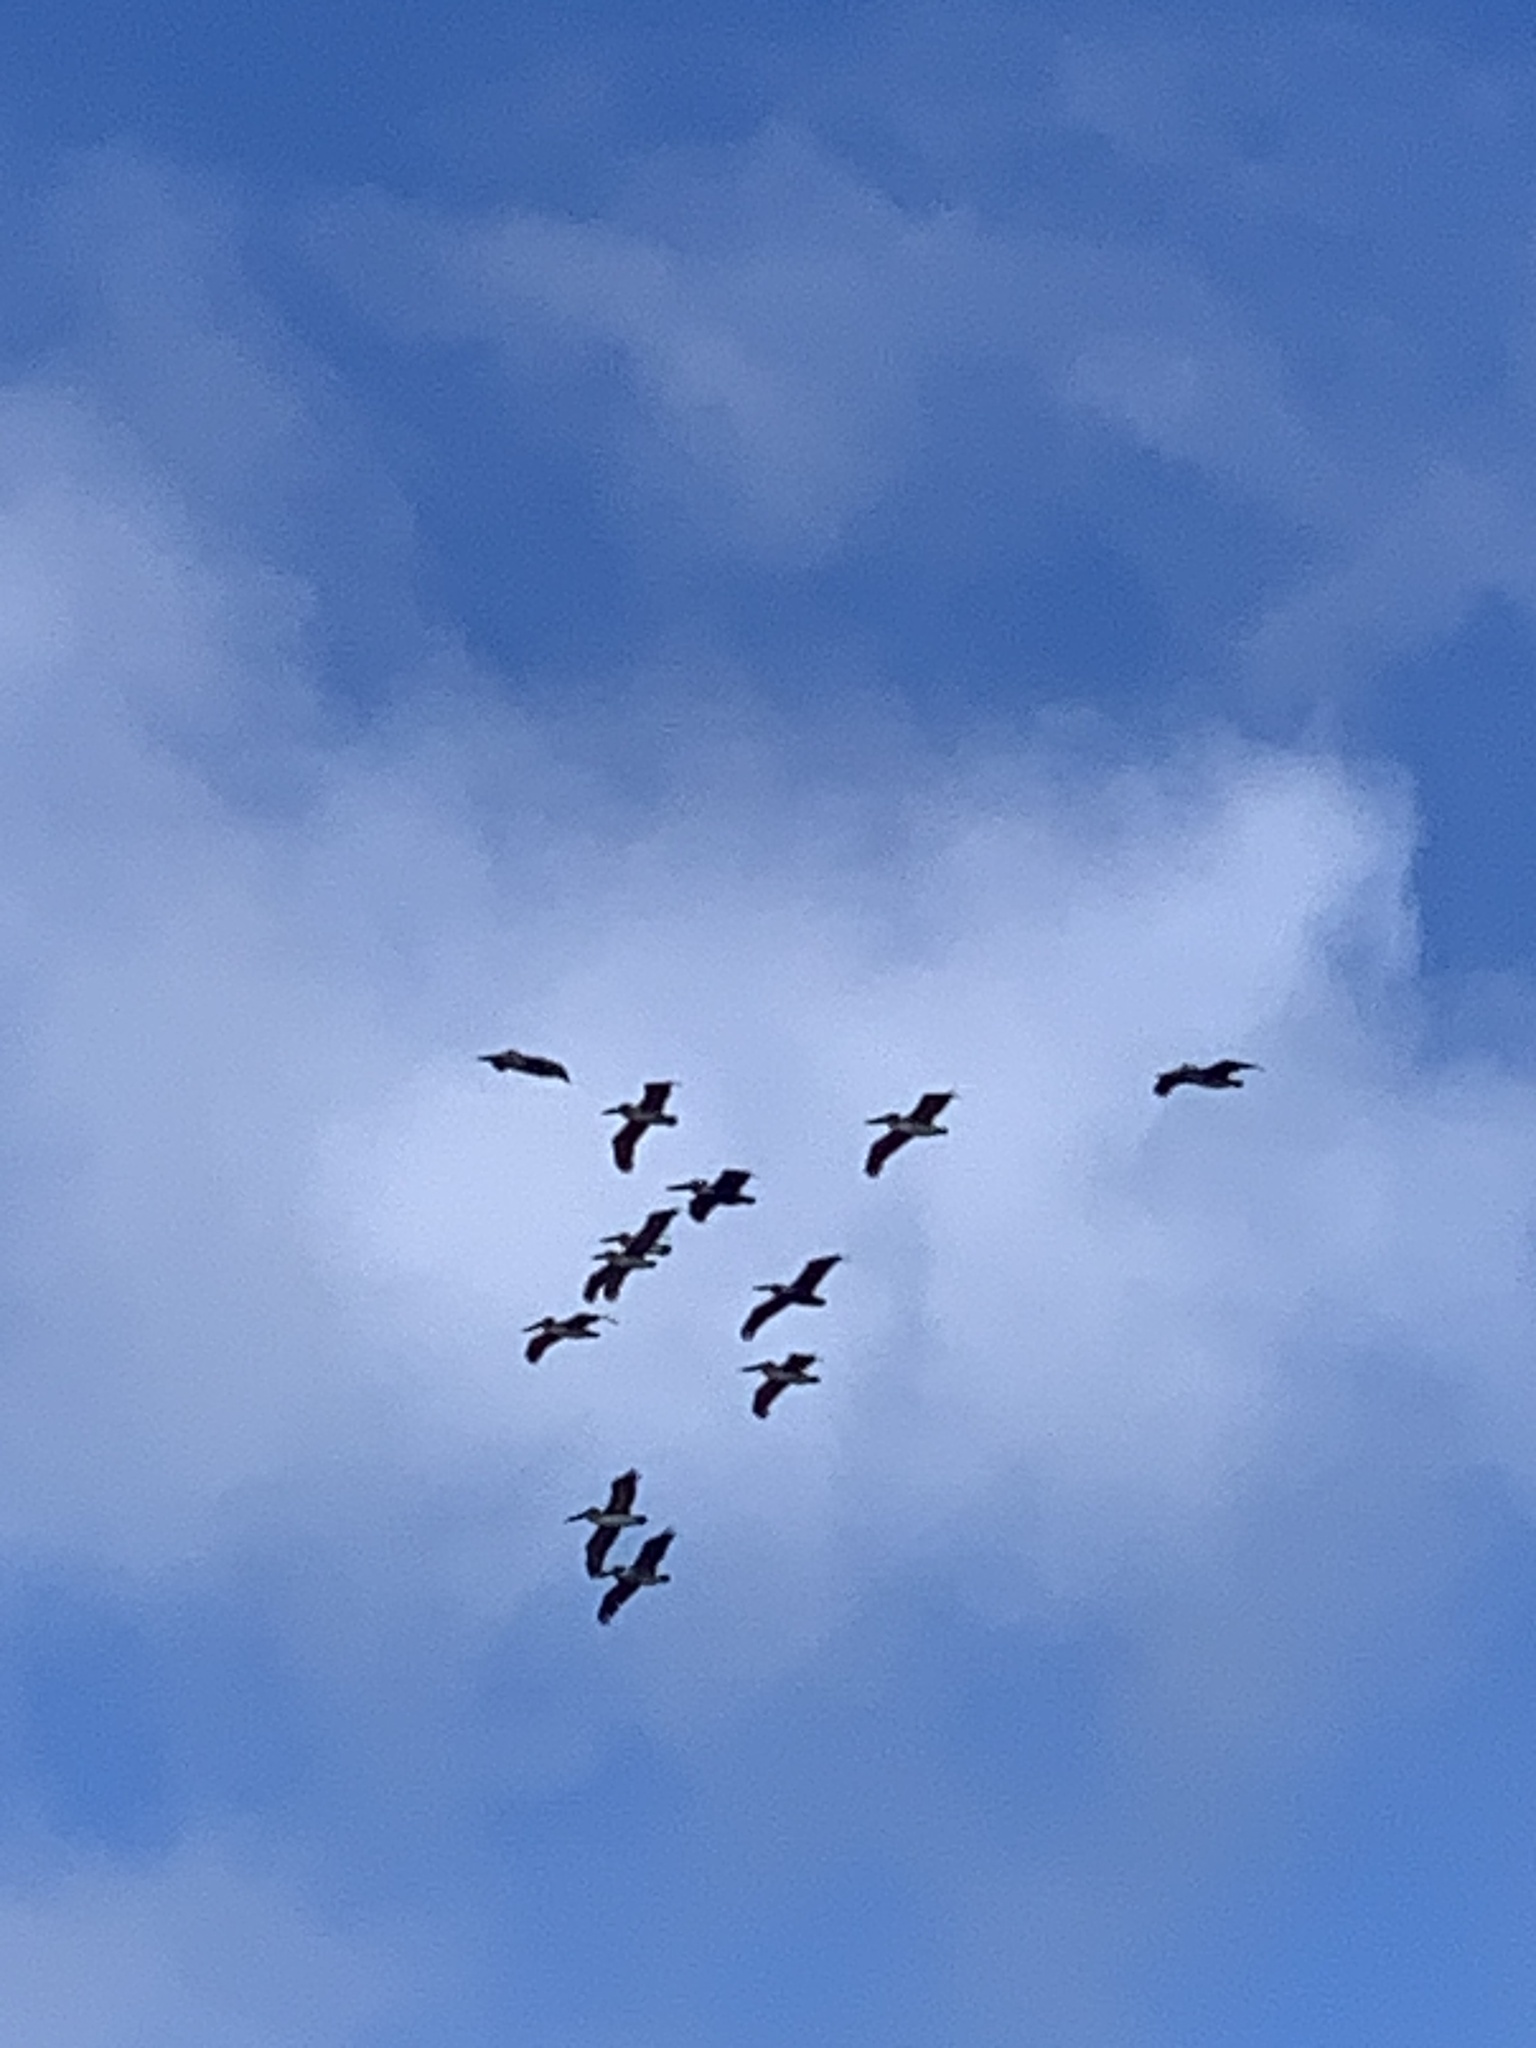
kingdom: Animalia
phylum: Chordata
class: Aves
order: Pelecaniformes
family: Pelecanidae
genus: Pelecanus
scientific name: Pelecanus occidentalis
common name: Brown pelican
